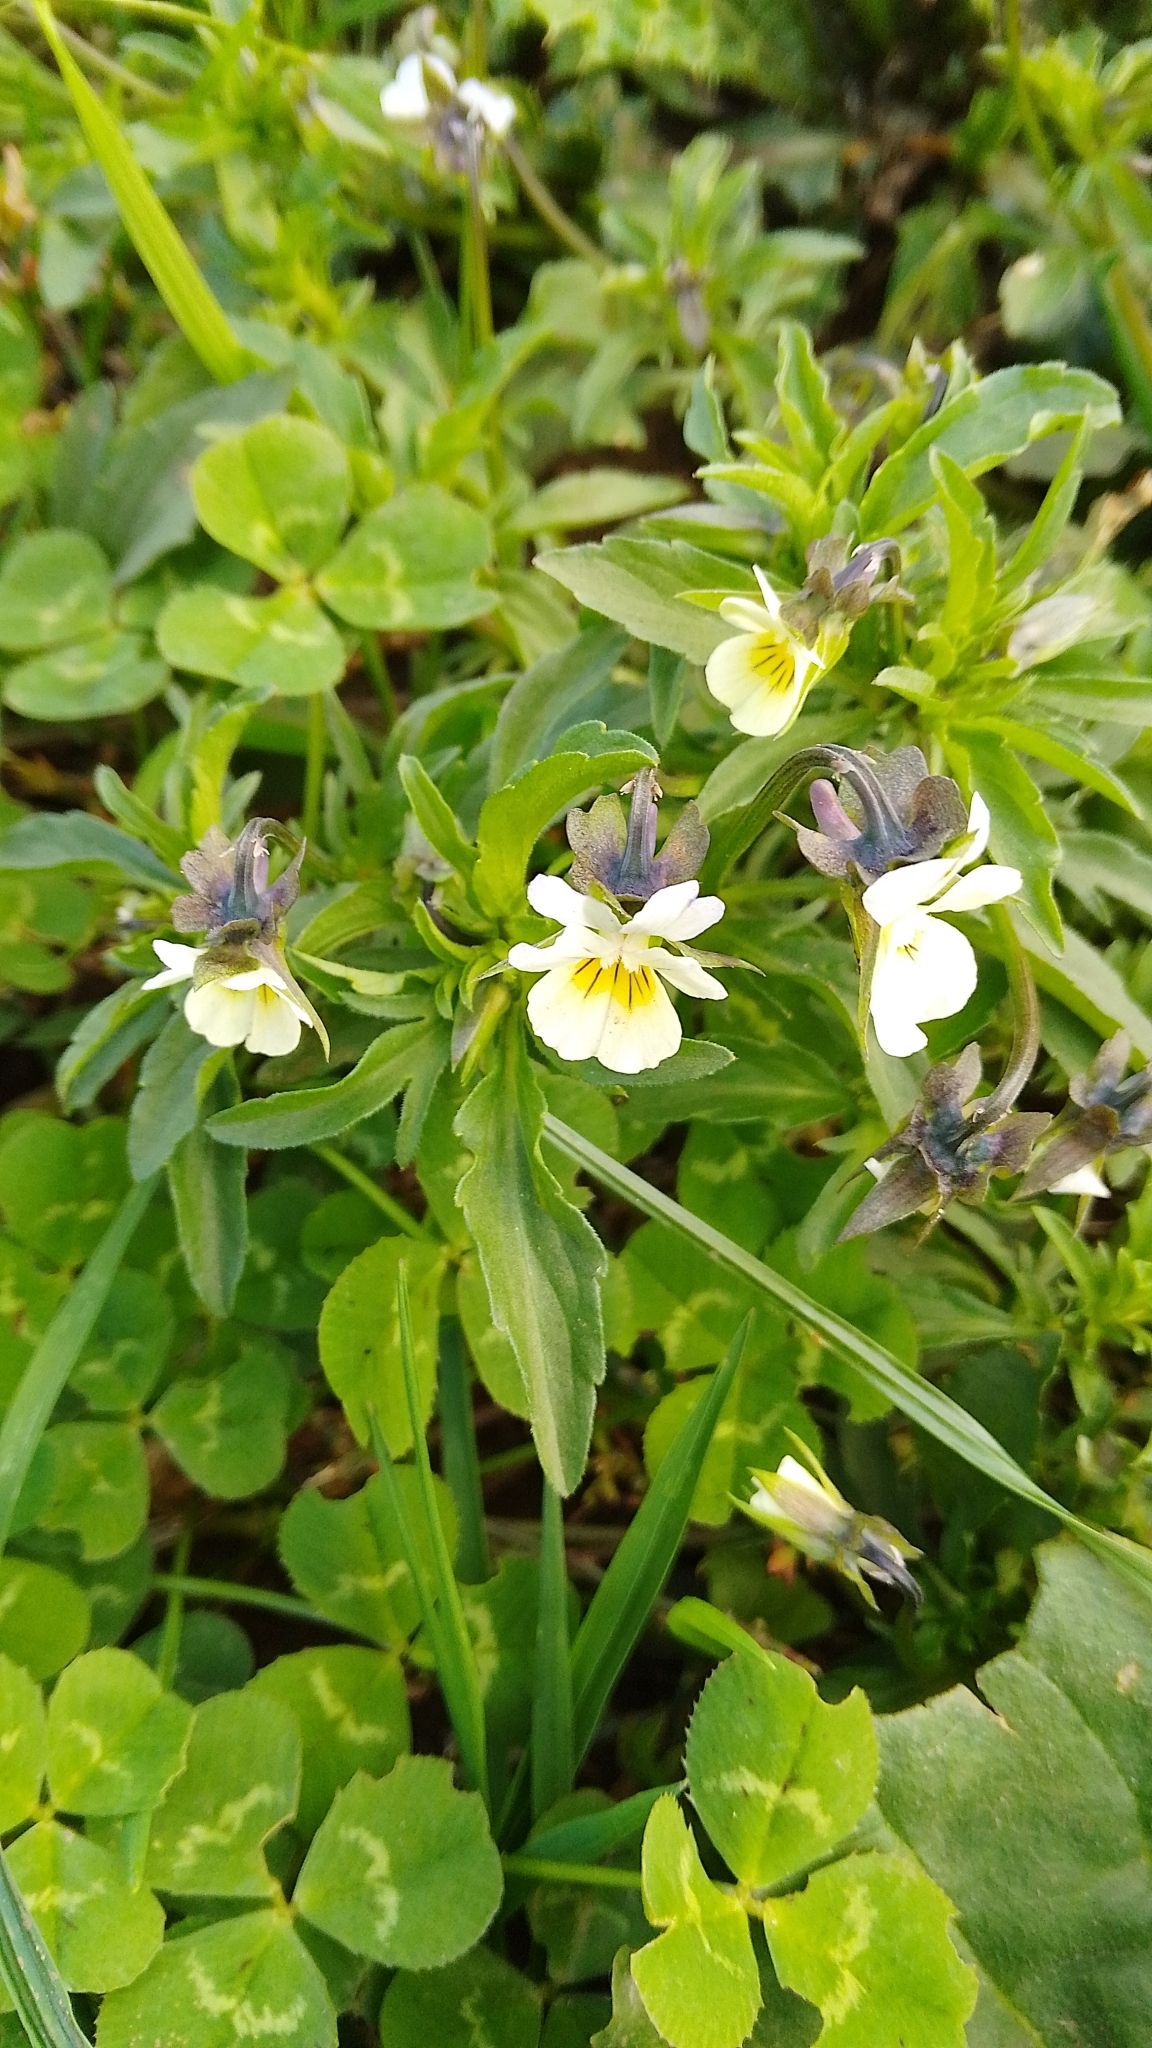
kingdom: Plantae
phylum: Tracheophyta
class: Magnoliopsida
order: Malpighiales
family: Violaceae
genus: Viola
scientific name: Viola arvensis
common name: Field pansy
